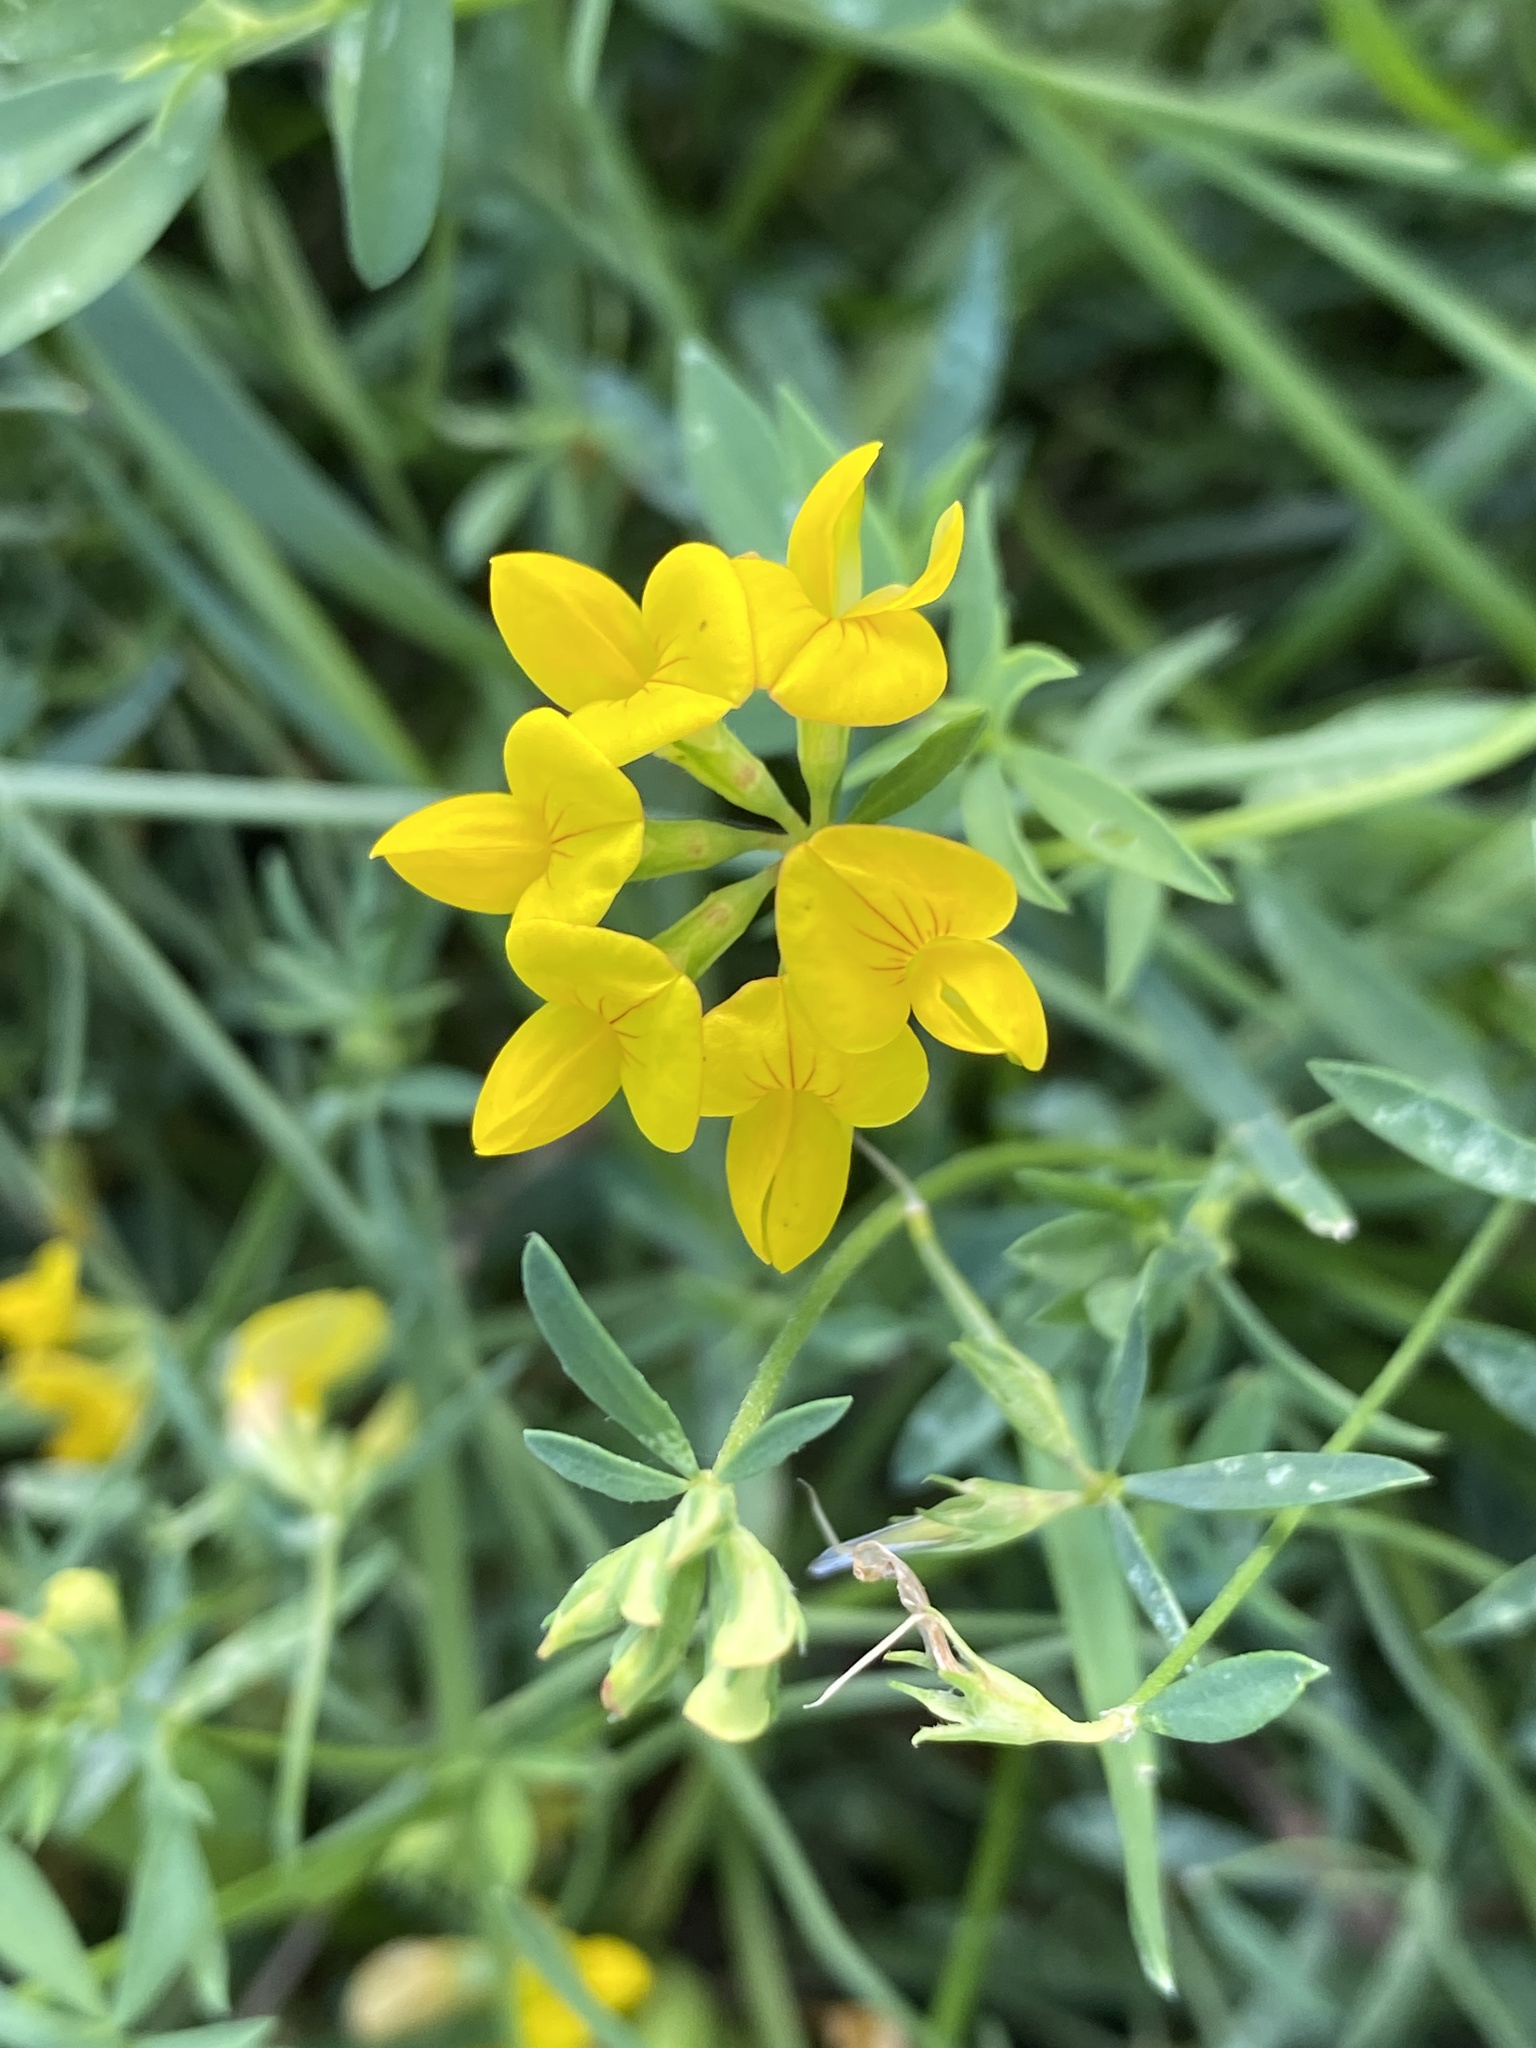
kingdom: Plantae
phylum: Tracheophyta
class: Magnoliopsida
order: Fabales
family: Fabaceae
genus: Lotus
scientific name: Lotus corniculatus
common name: Common bird's-foot-trefoil
